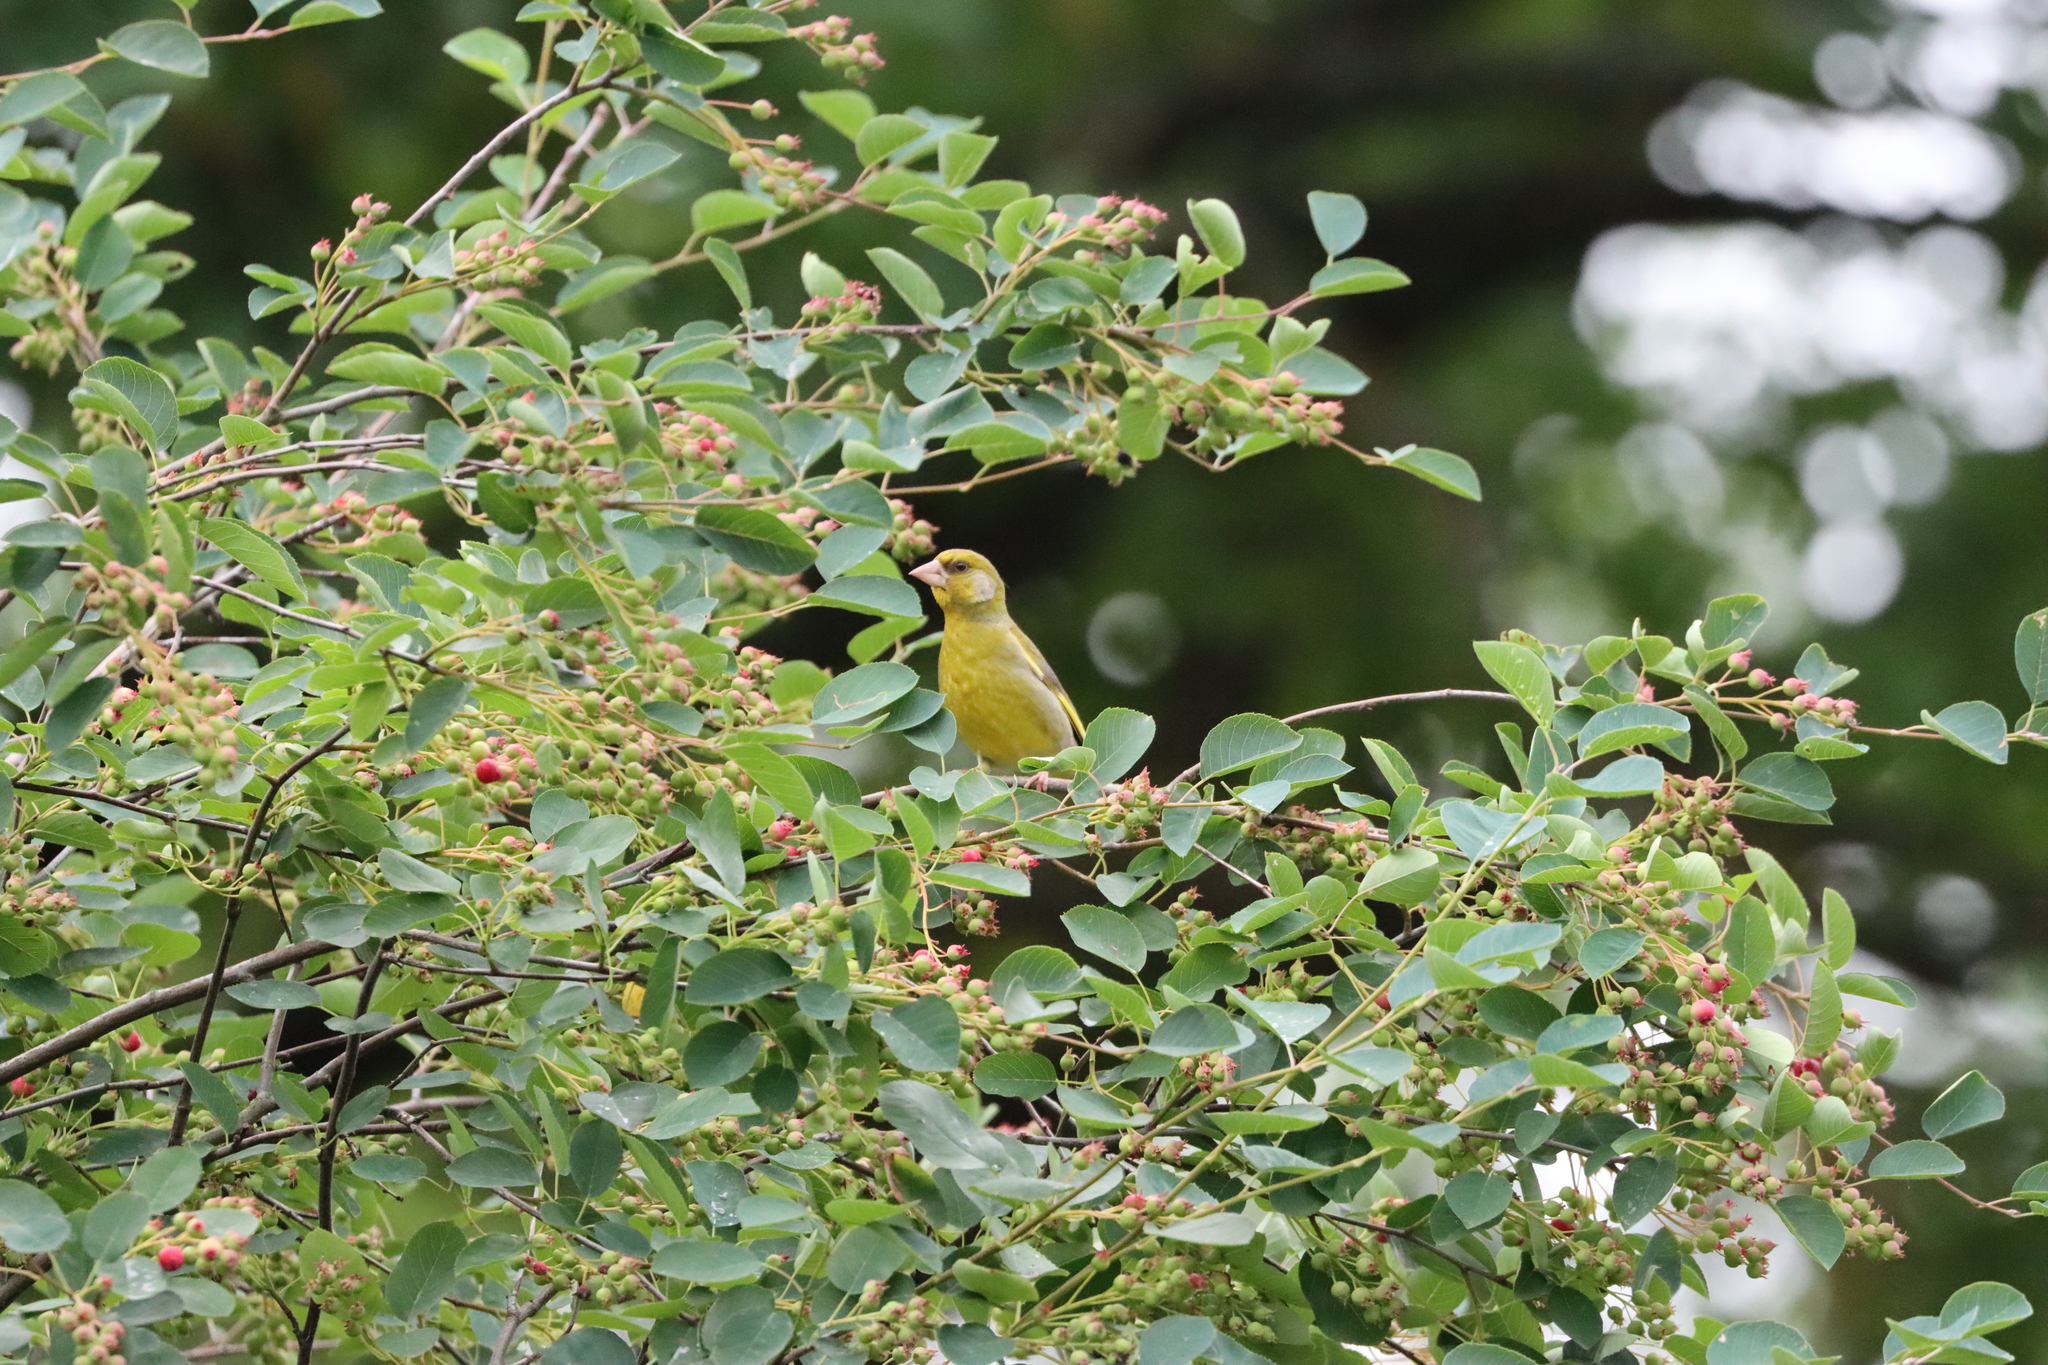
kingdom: Plantae
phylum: Tracheophyta
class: Liliopsida
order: Poales
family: Poaceae
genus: Chloris
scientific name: Chloris chloris
